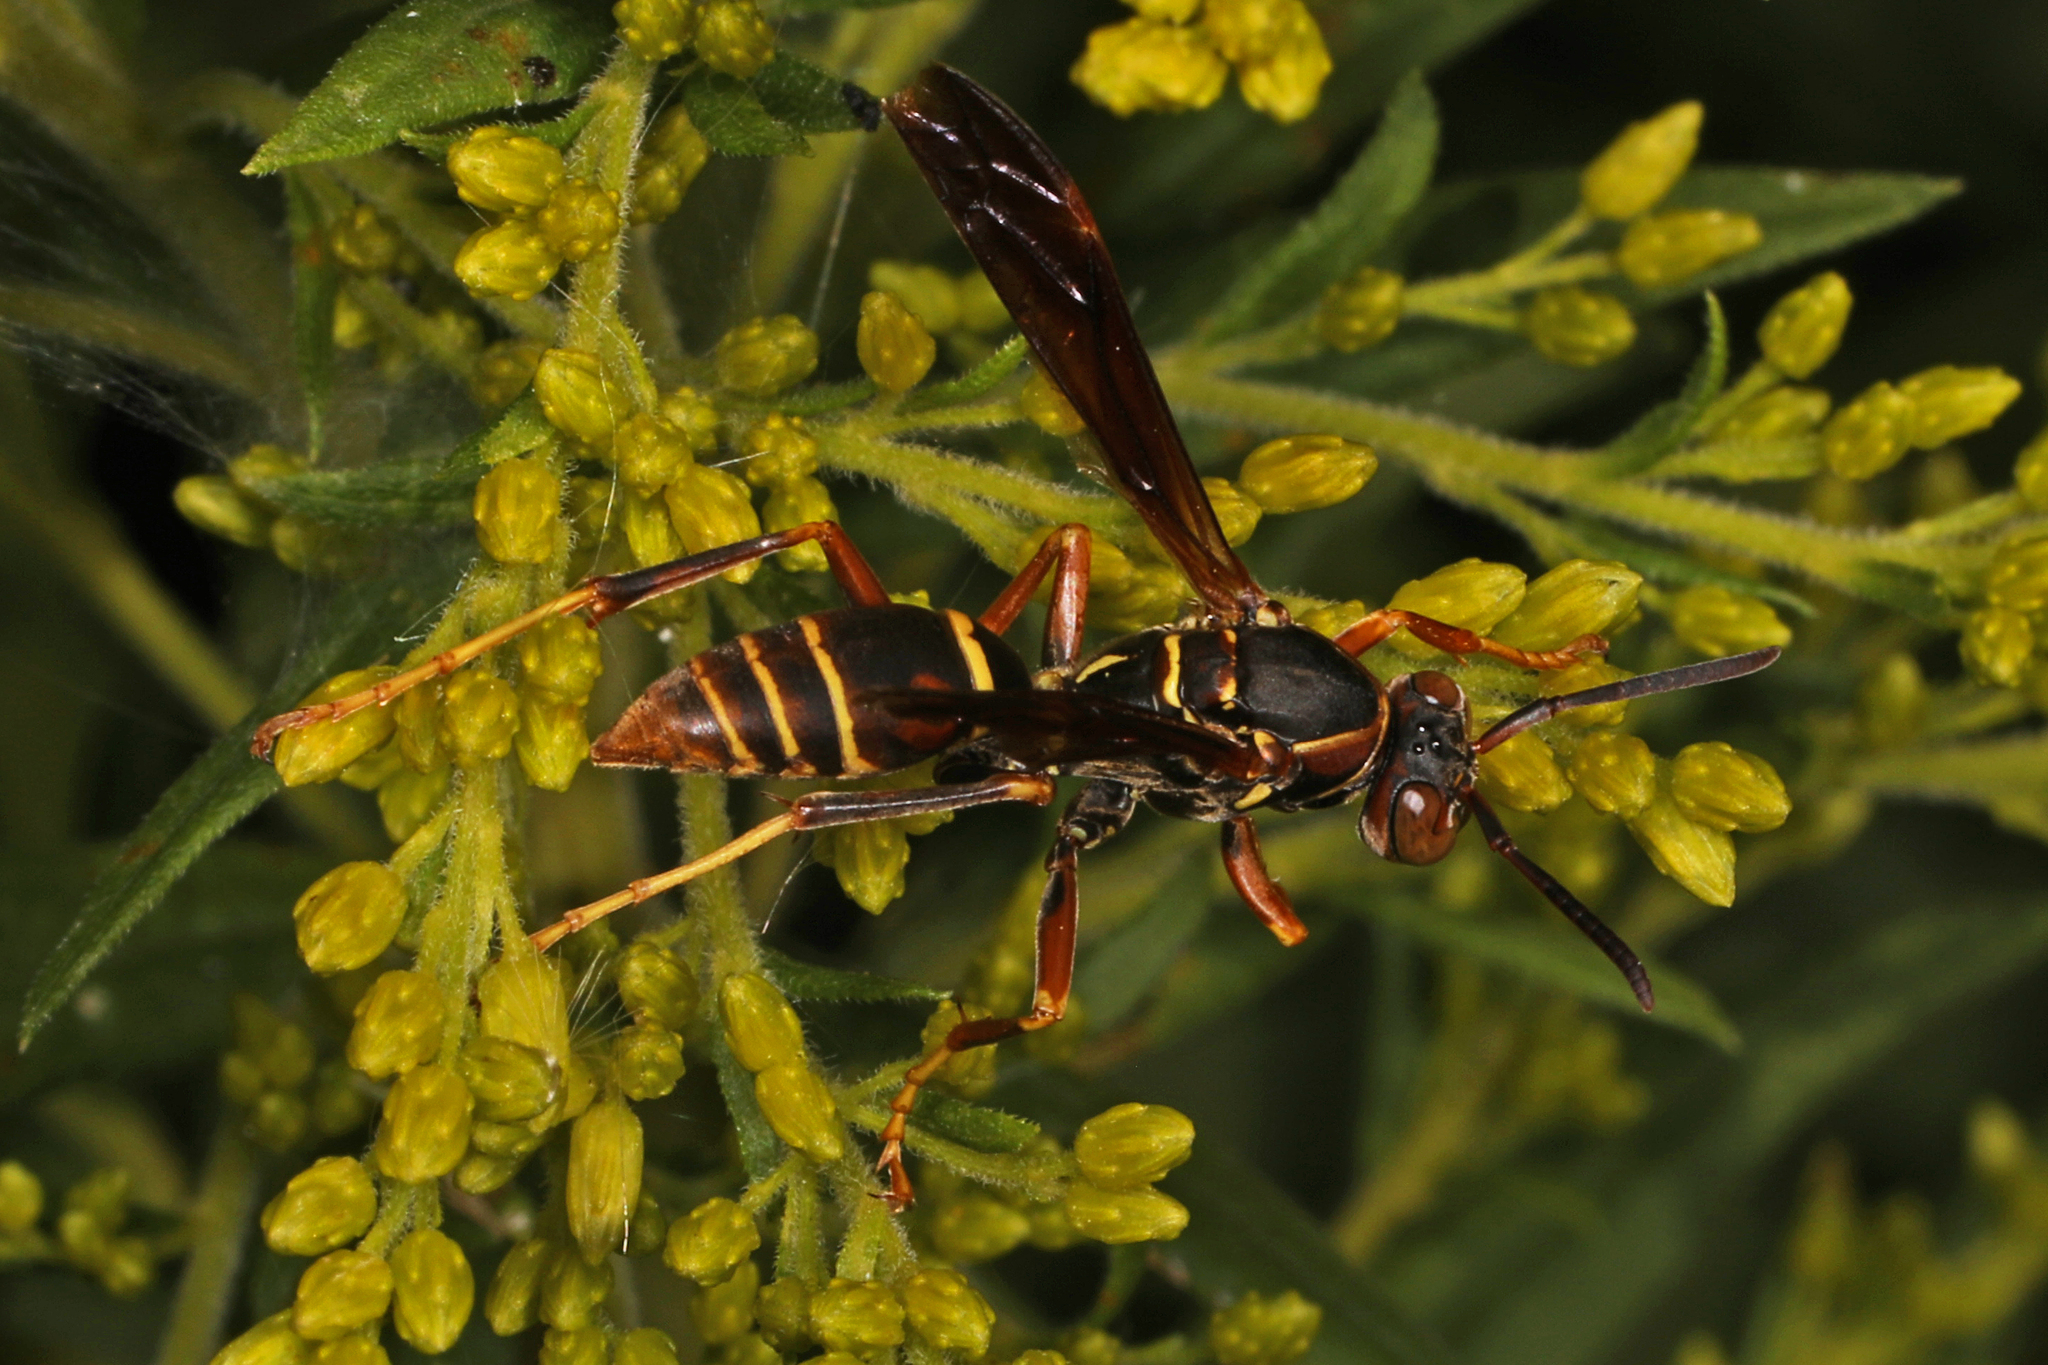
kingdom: Animalia
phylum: Arthropoda
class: Insecta
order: Hymenoptera
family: Eumenidae
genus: Polistes
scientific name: Polistes fuscatus
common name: Dark paper wasp
